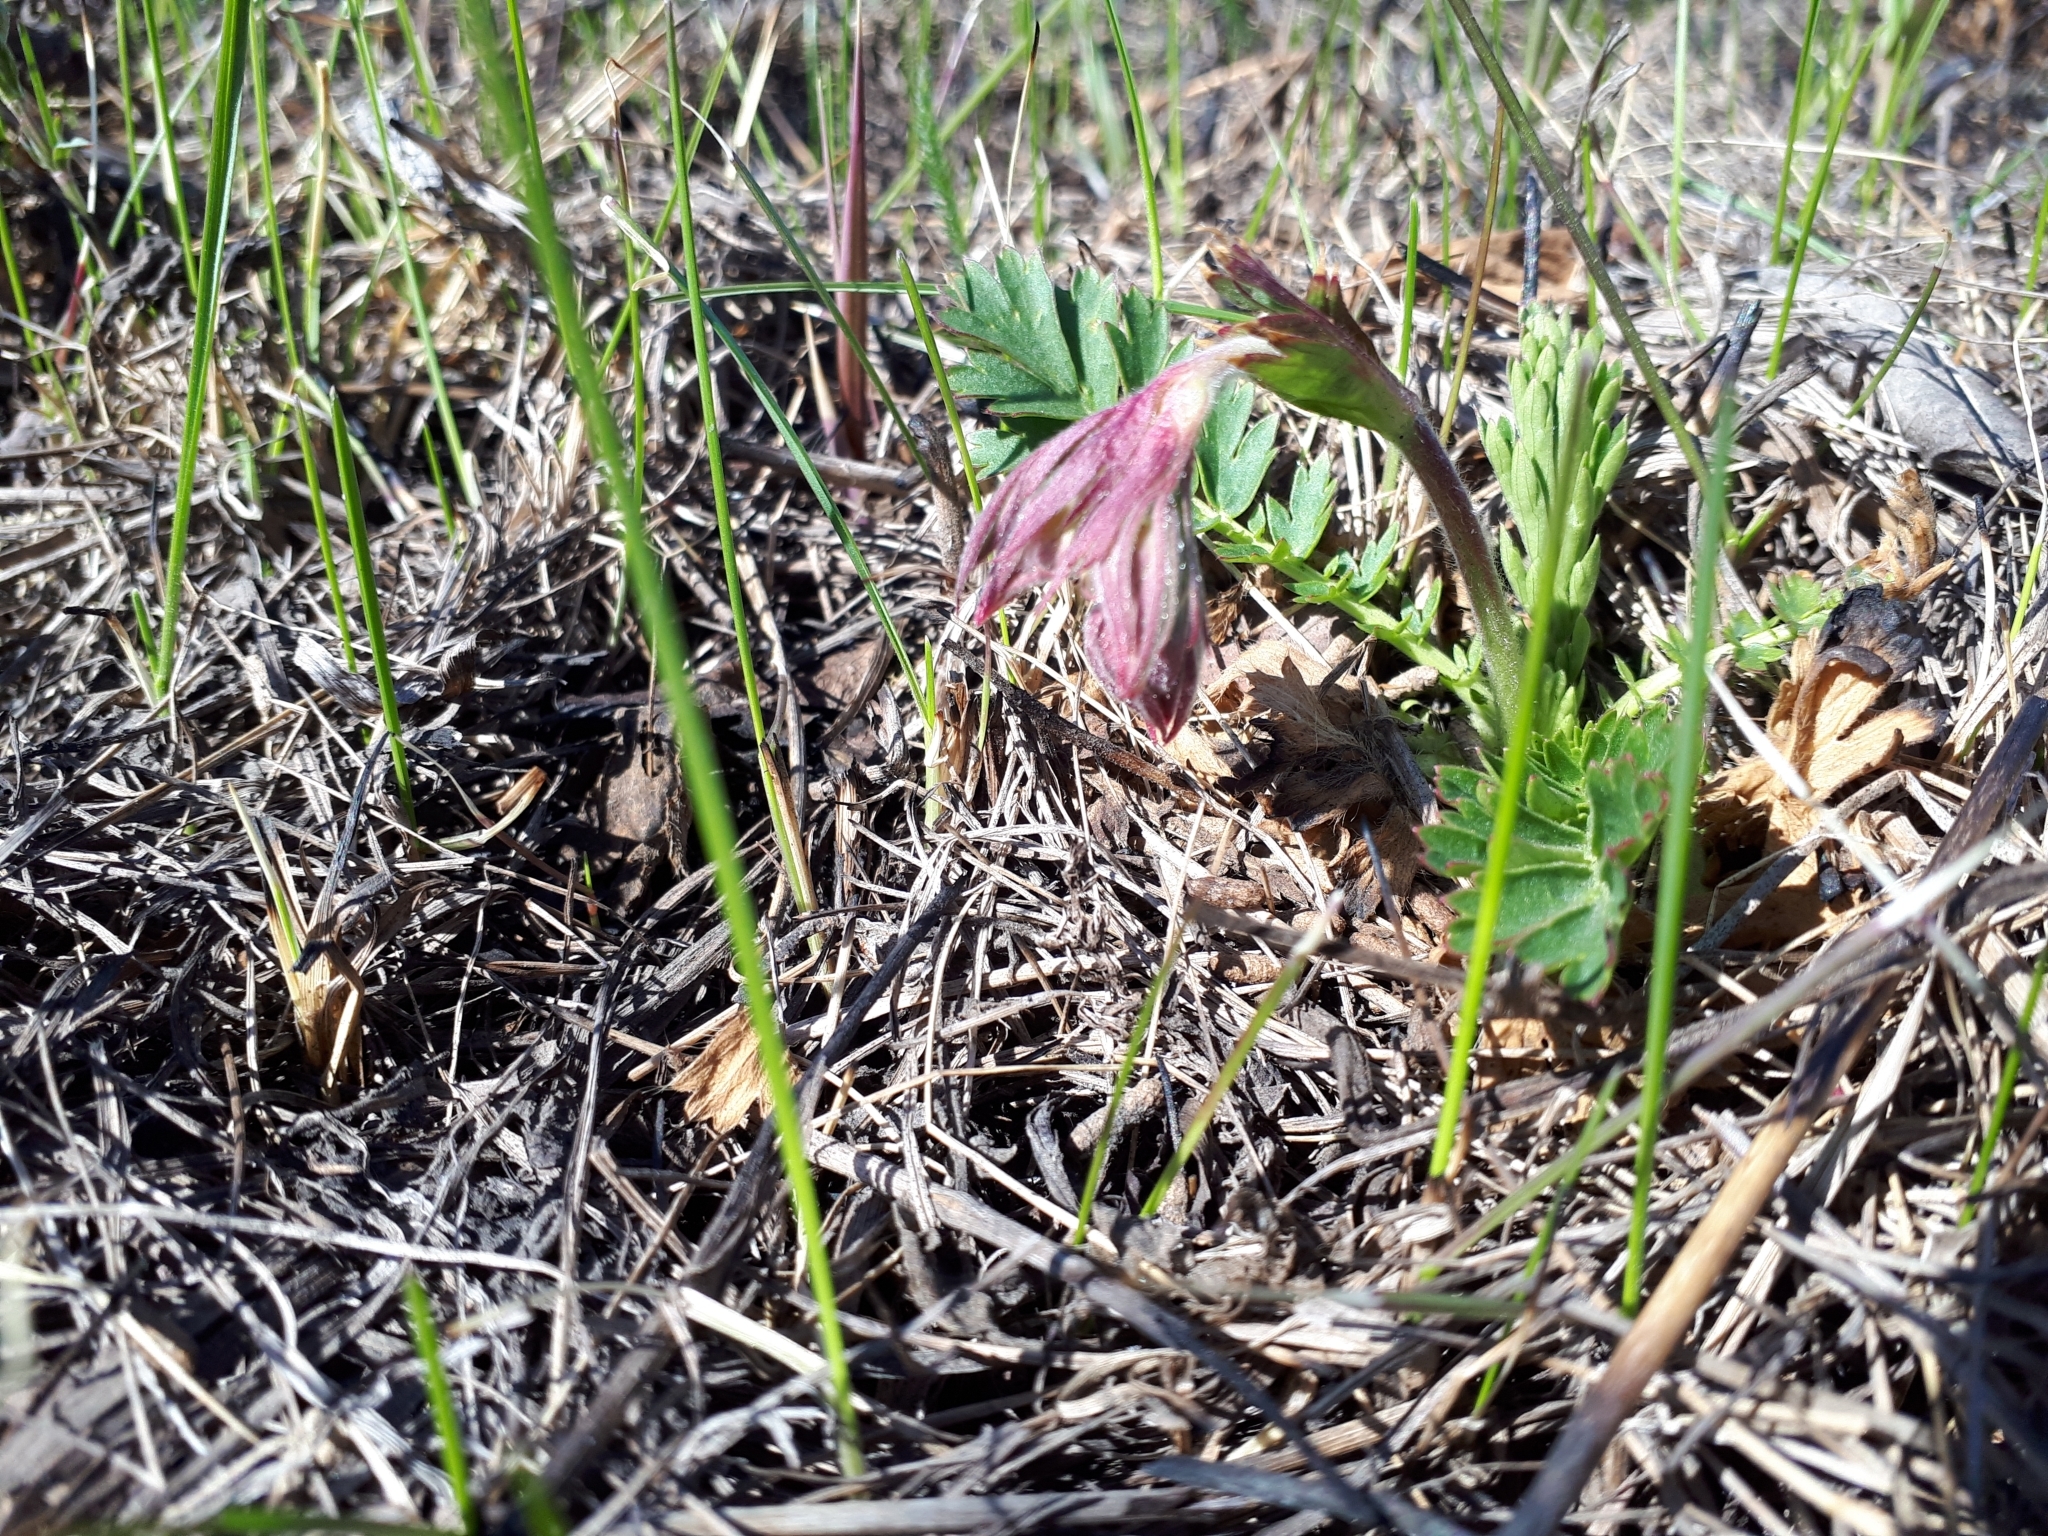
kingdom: Plantae
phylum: Tracheophyta
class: Magnoliopsida
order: Rosales
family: Rosaceae
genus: Geum
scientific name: Geum triflorum
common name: Old man's whiskers
